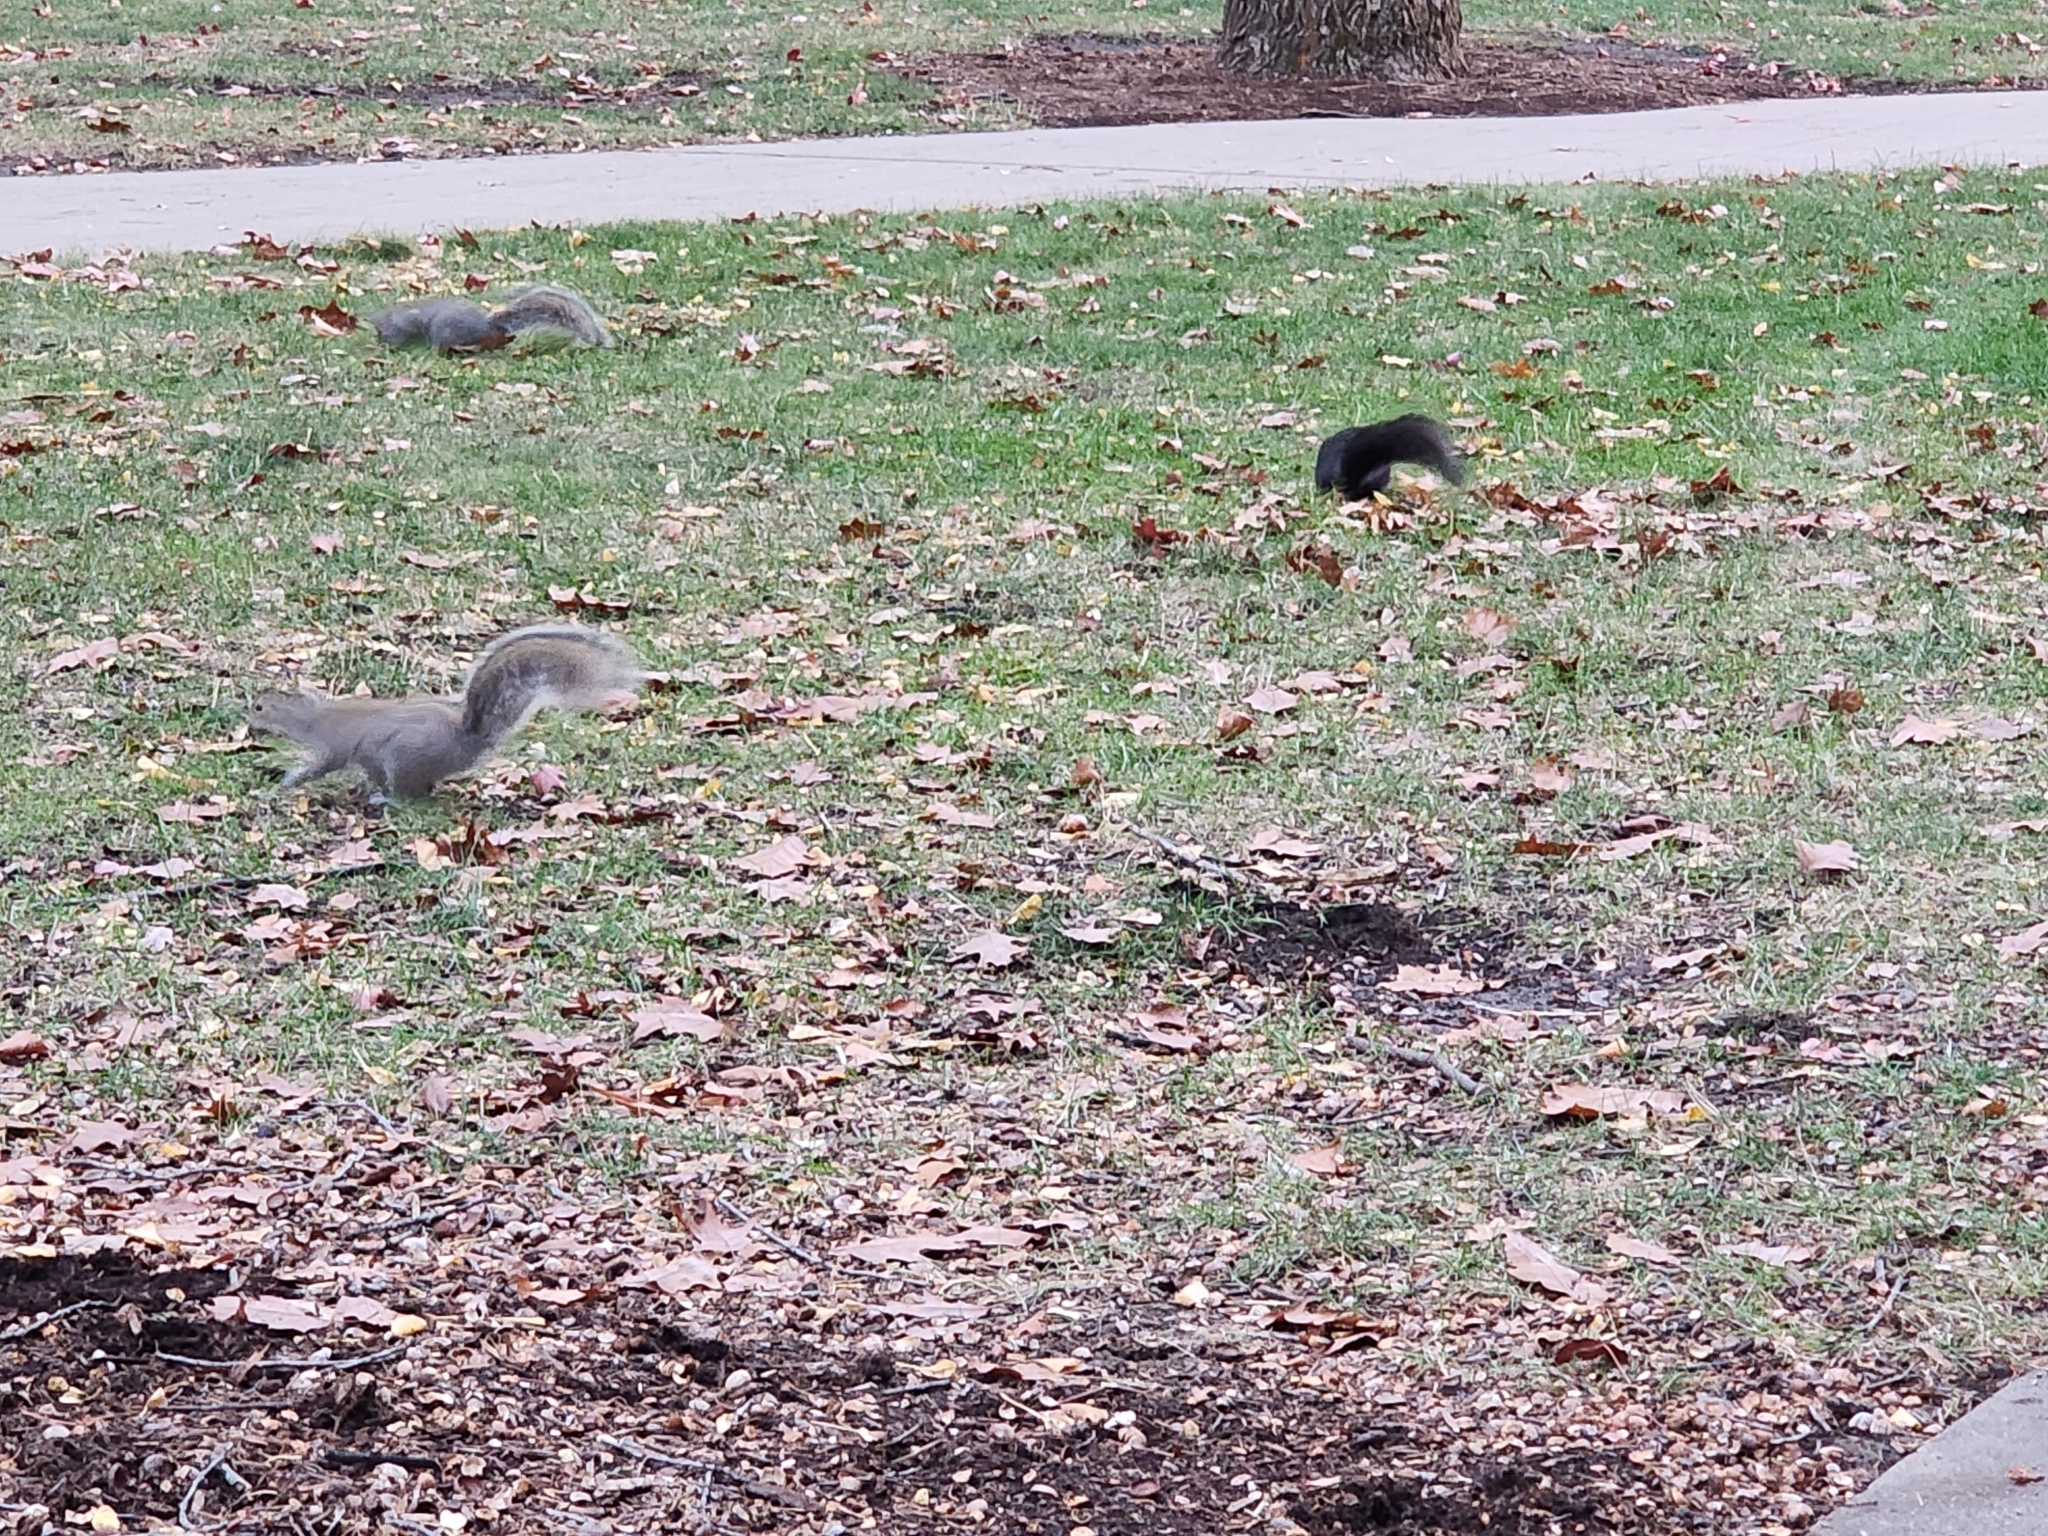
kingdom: Animalia
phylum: Chordata
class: Mammalia
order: Rodentia
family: Sciuridae
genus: Sciurus
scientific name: Sciurus carolinensis
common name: Eastern gray squirrel
